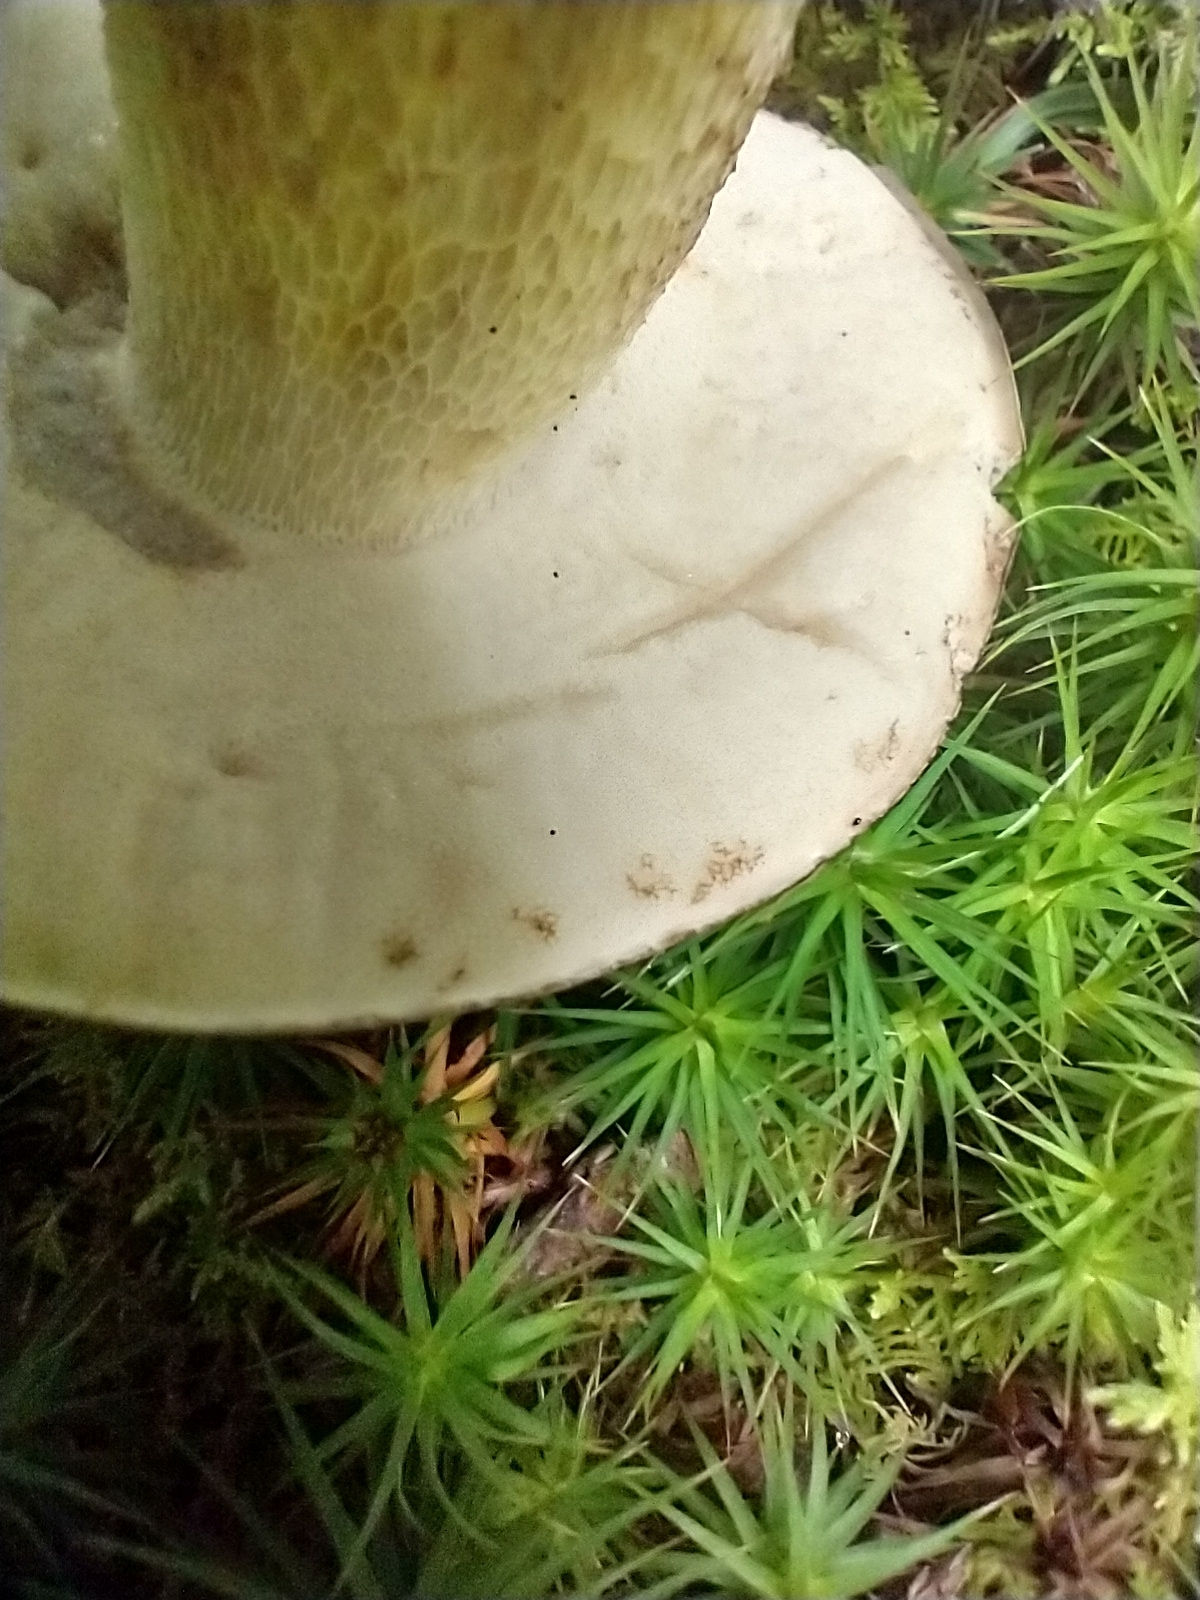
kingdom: Fungi
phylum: Basidiomycota
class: Agaricomycetes
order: Boletales
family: Boletaceae
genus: Retiboletus
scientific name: Retiboletus griseus
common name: Grey bolete
